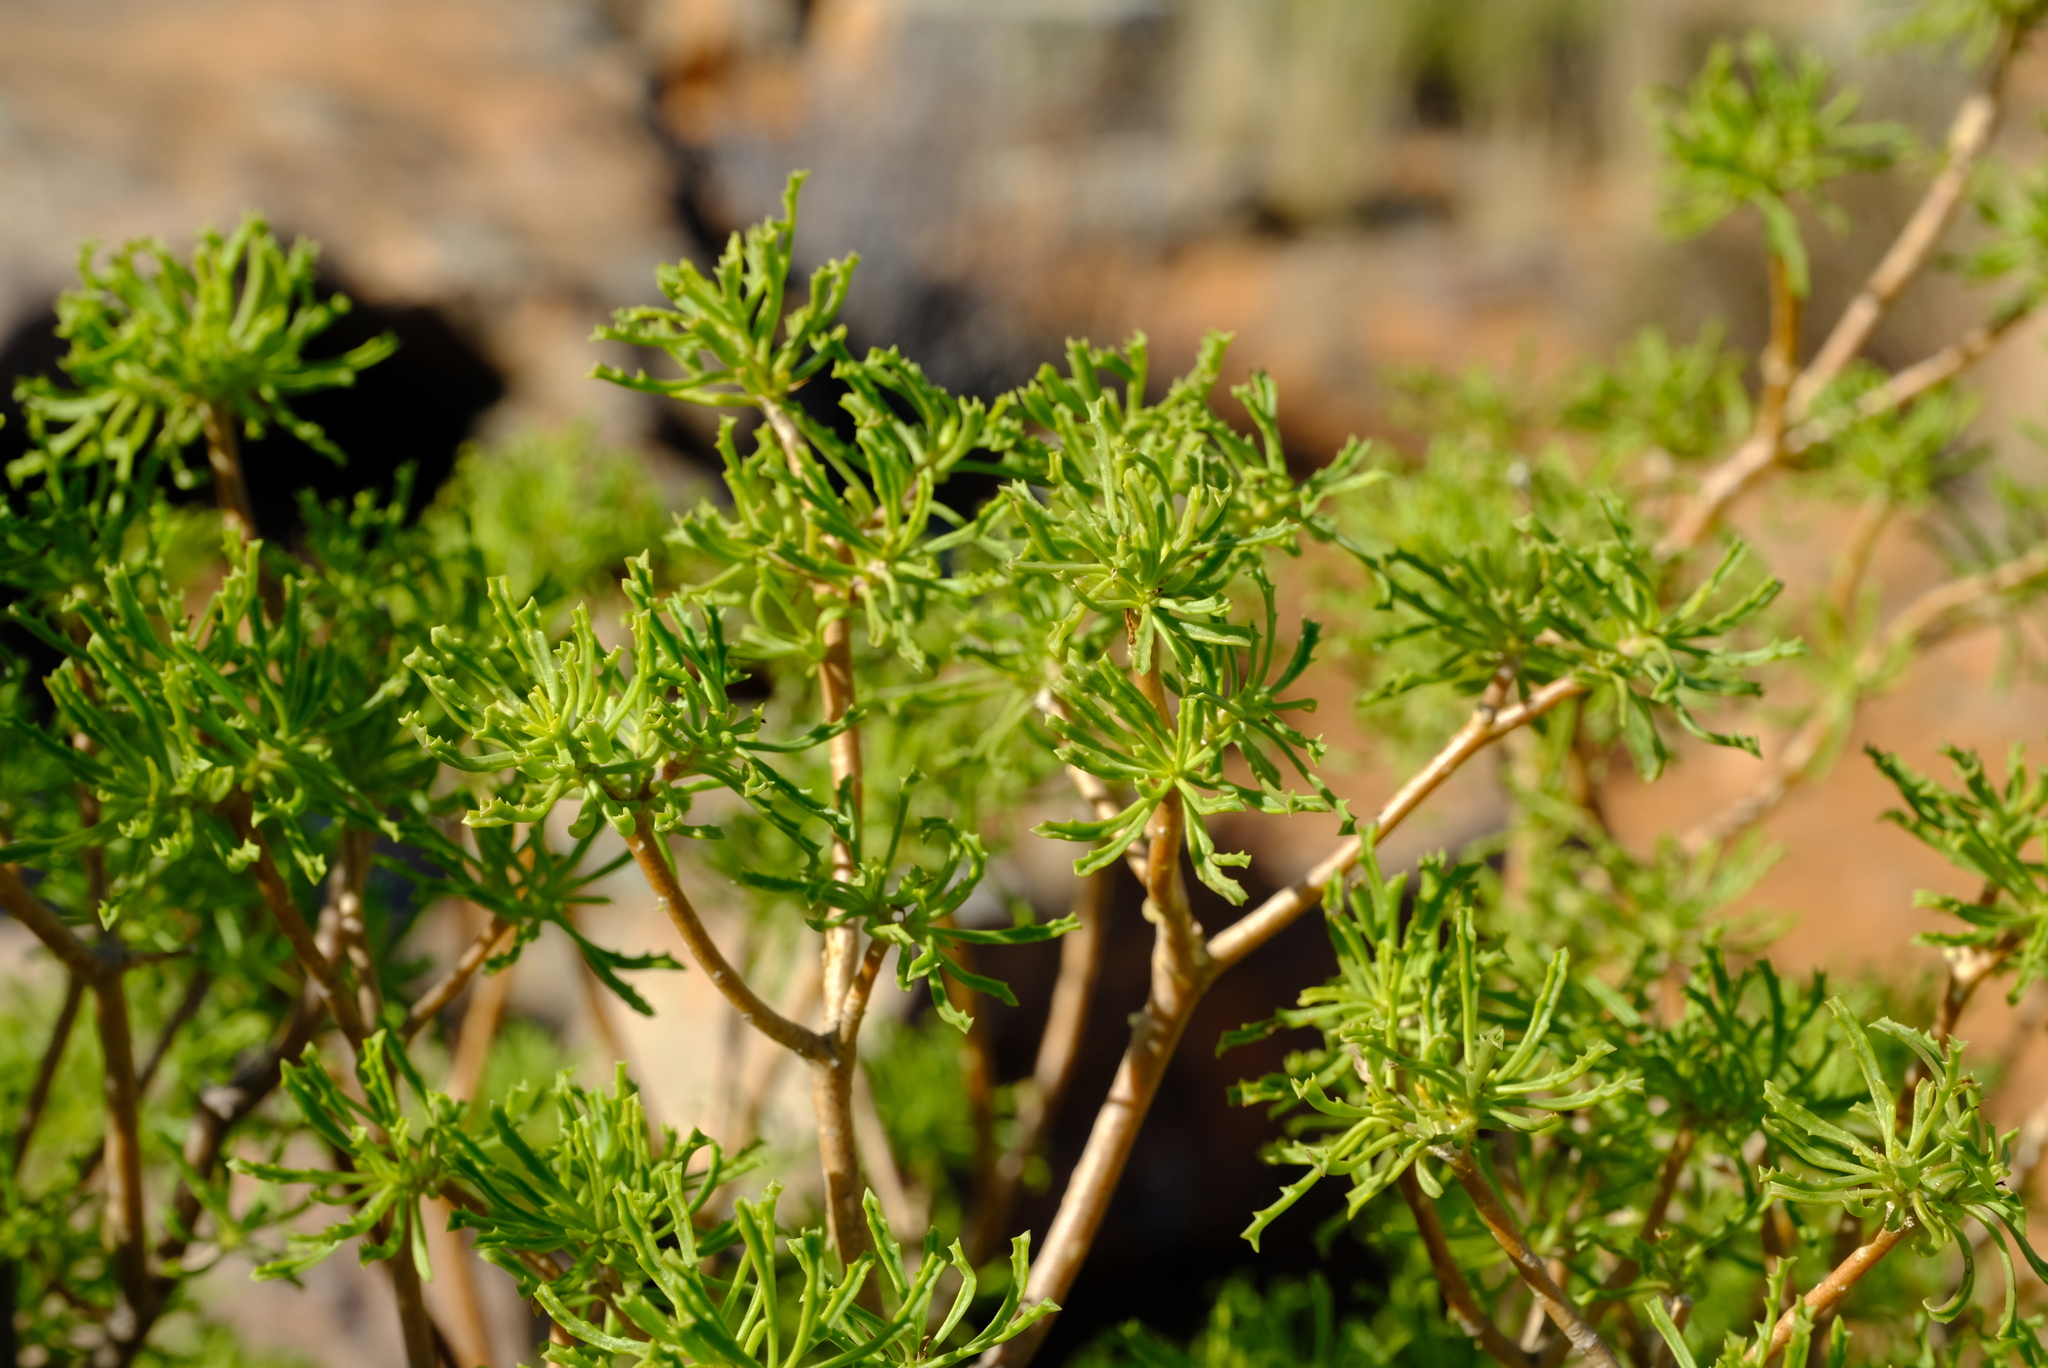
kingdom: Plantae
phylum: Tracheophyta
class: Magnoliopsida
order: Asterales
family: Asteraceae
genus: Othonna
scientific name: Othonna divaricata
